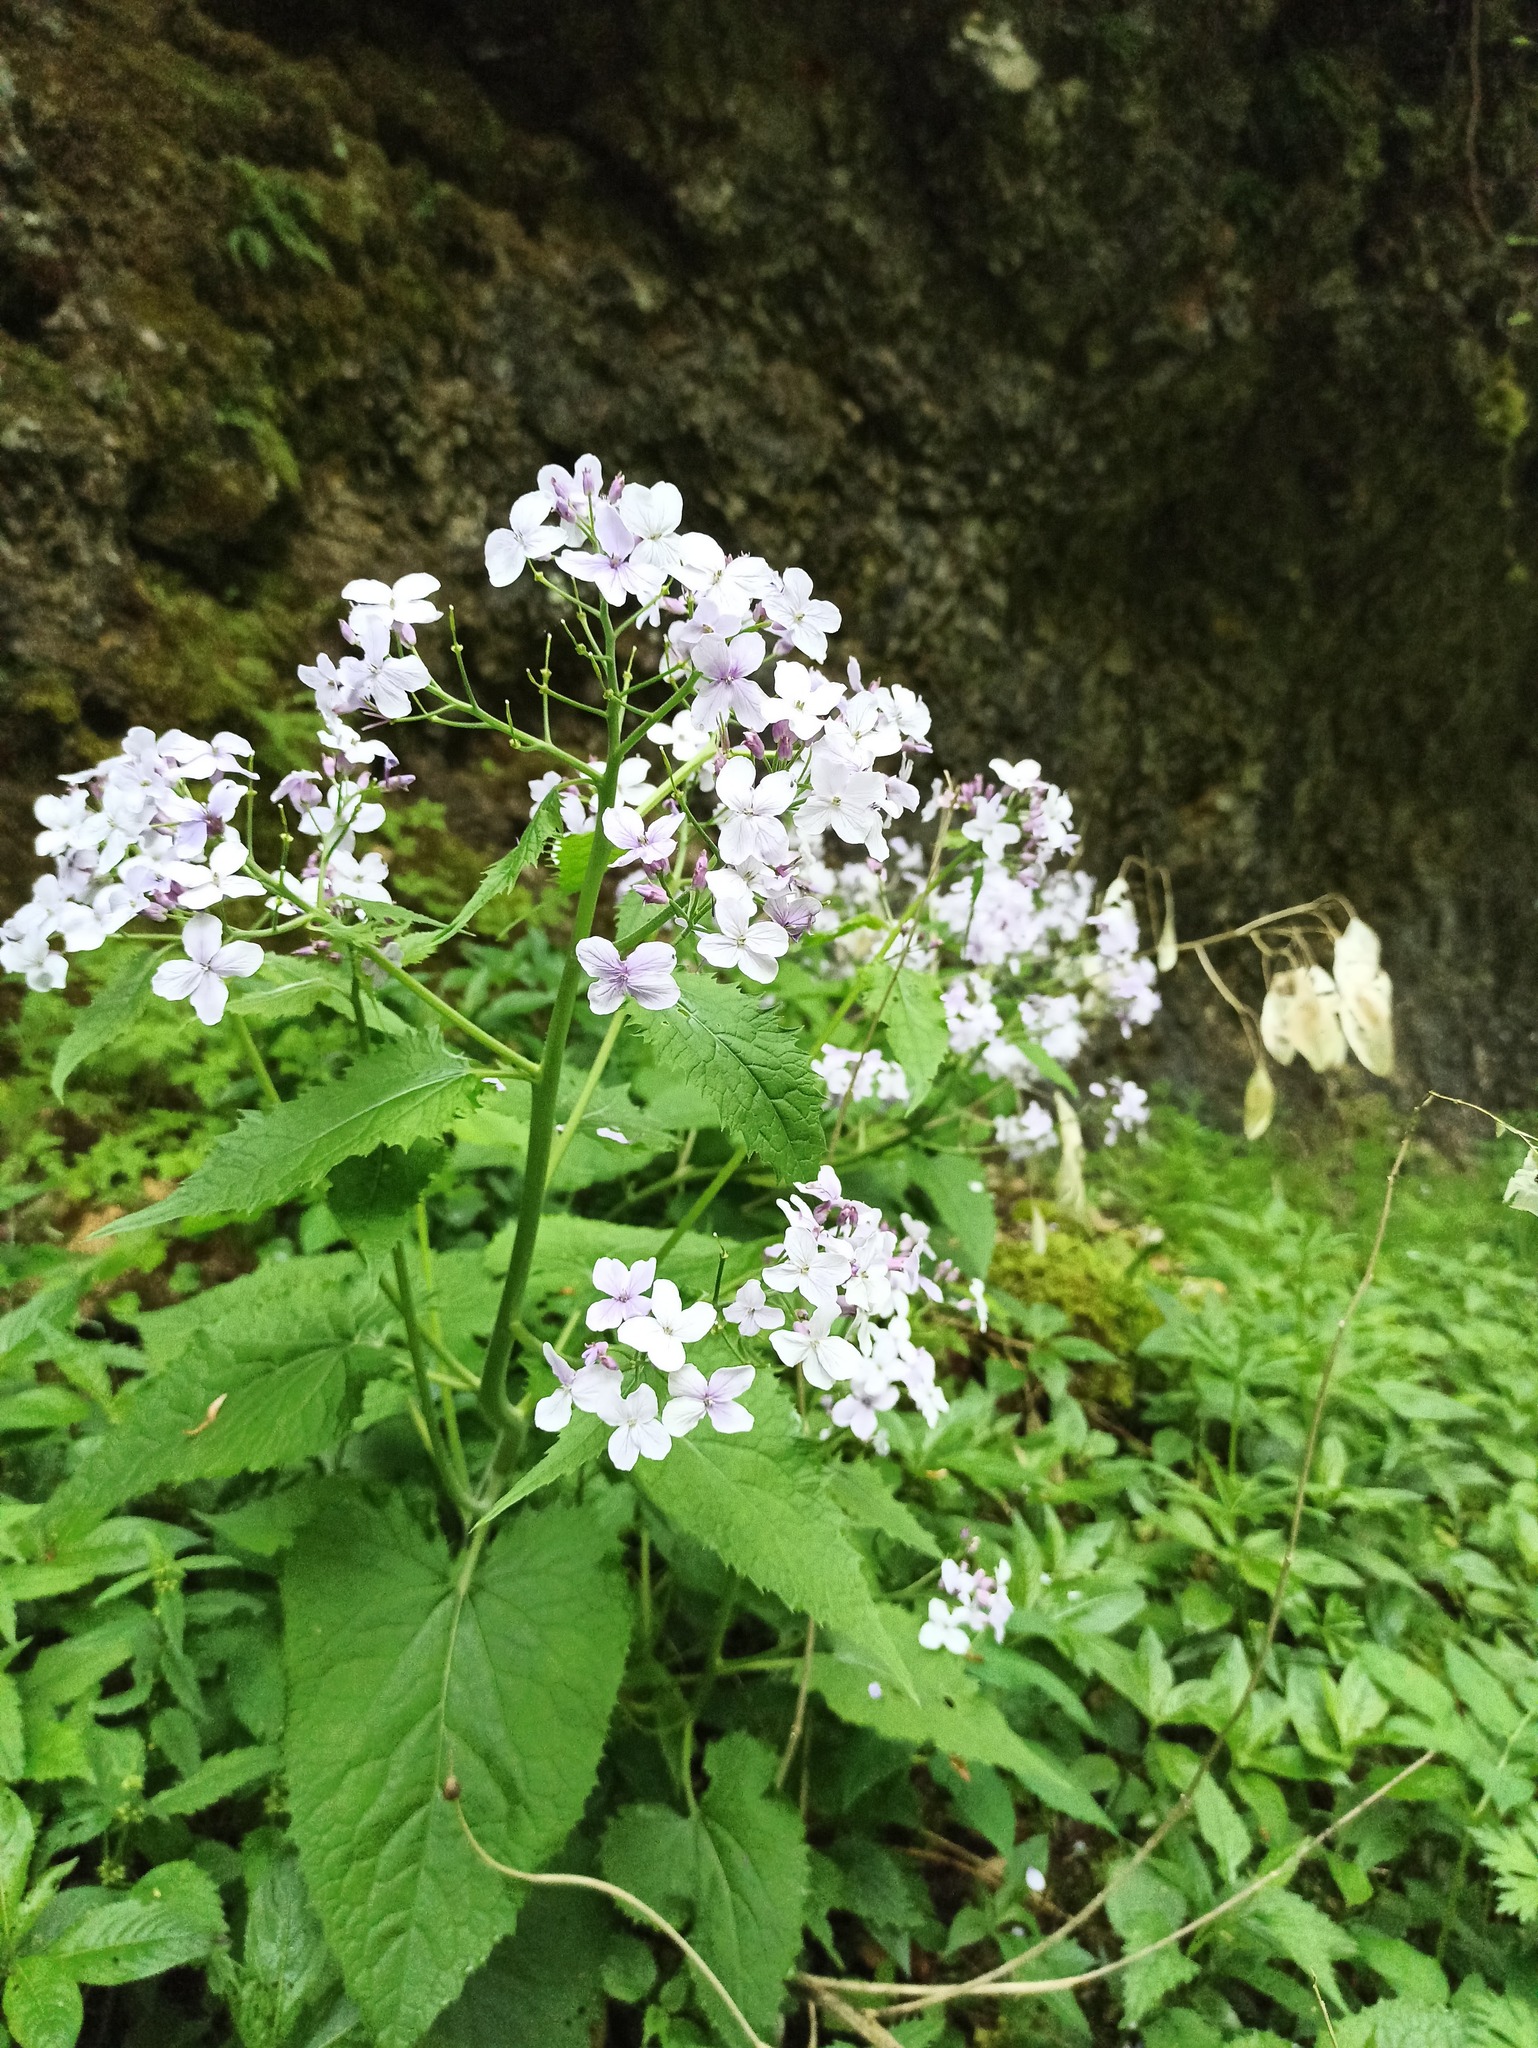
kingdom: Plantae
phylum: Tracheophyta
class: Magnoliopsida
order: Brassicales
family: Brassicaceae
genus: Lunaria
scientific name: Lunaria rediviva
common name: Perennial honesty
